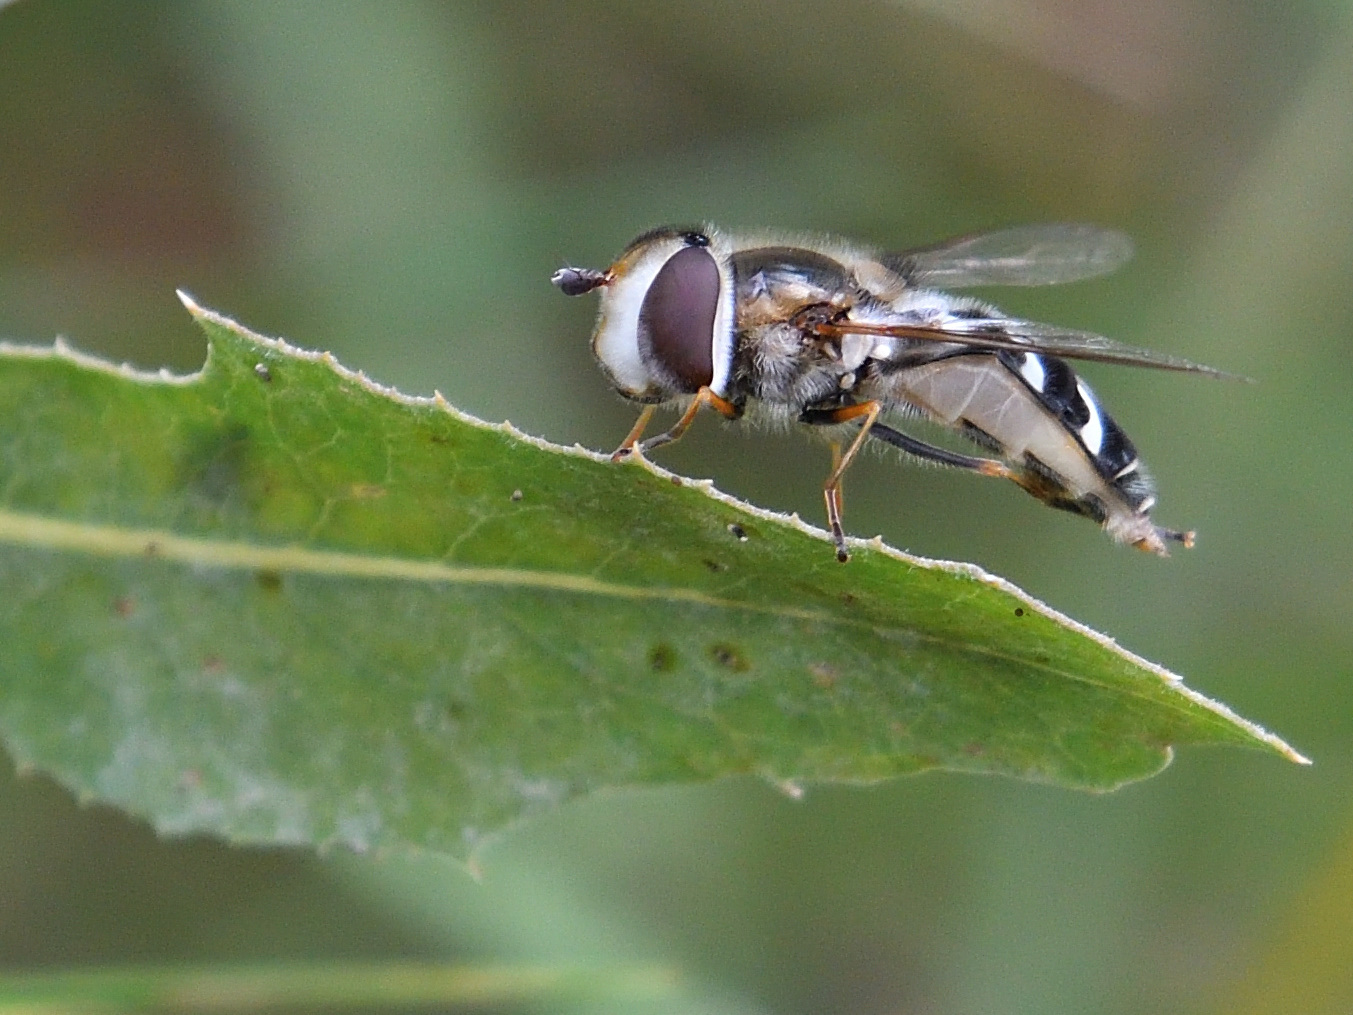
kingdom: Animalia
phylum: Arthropoda
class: Insecta
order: Diptera
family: Syrphidae
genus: Scaeva
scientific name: Scaeva pyrastri
